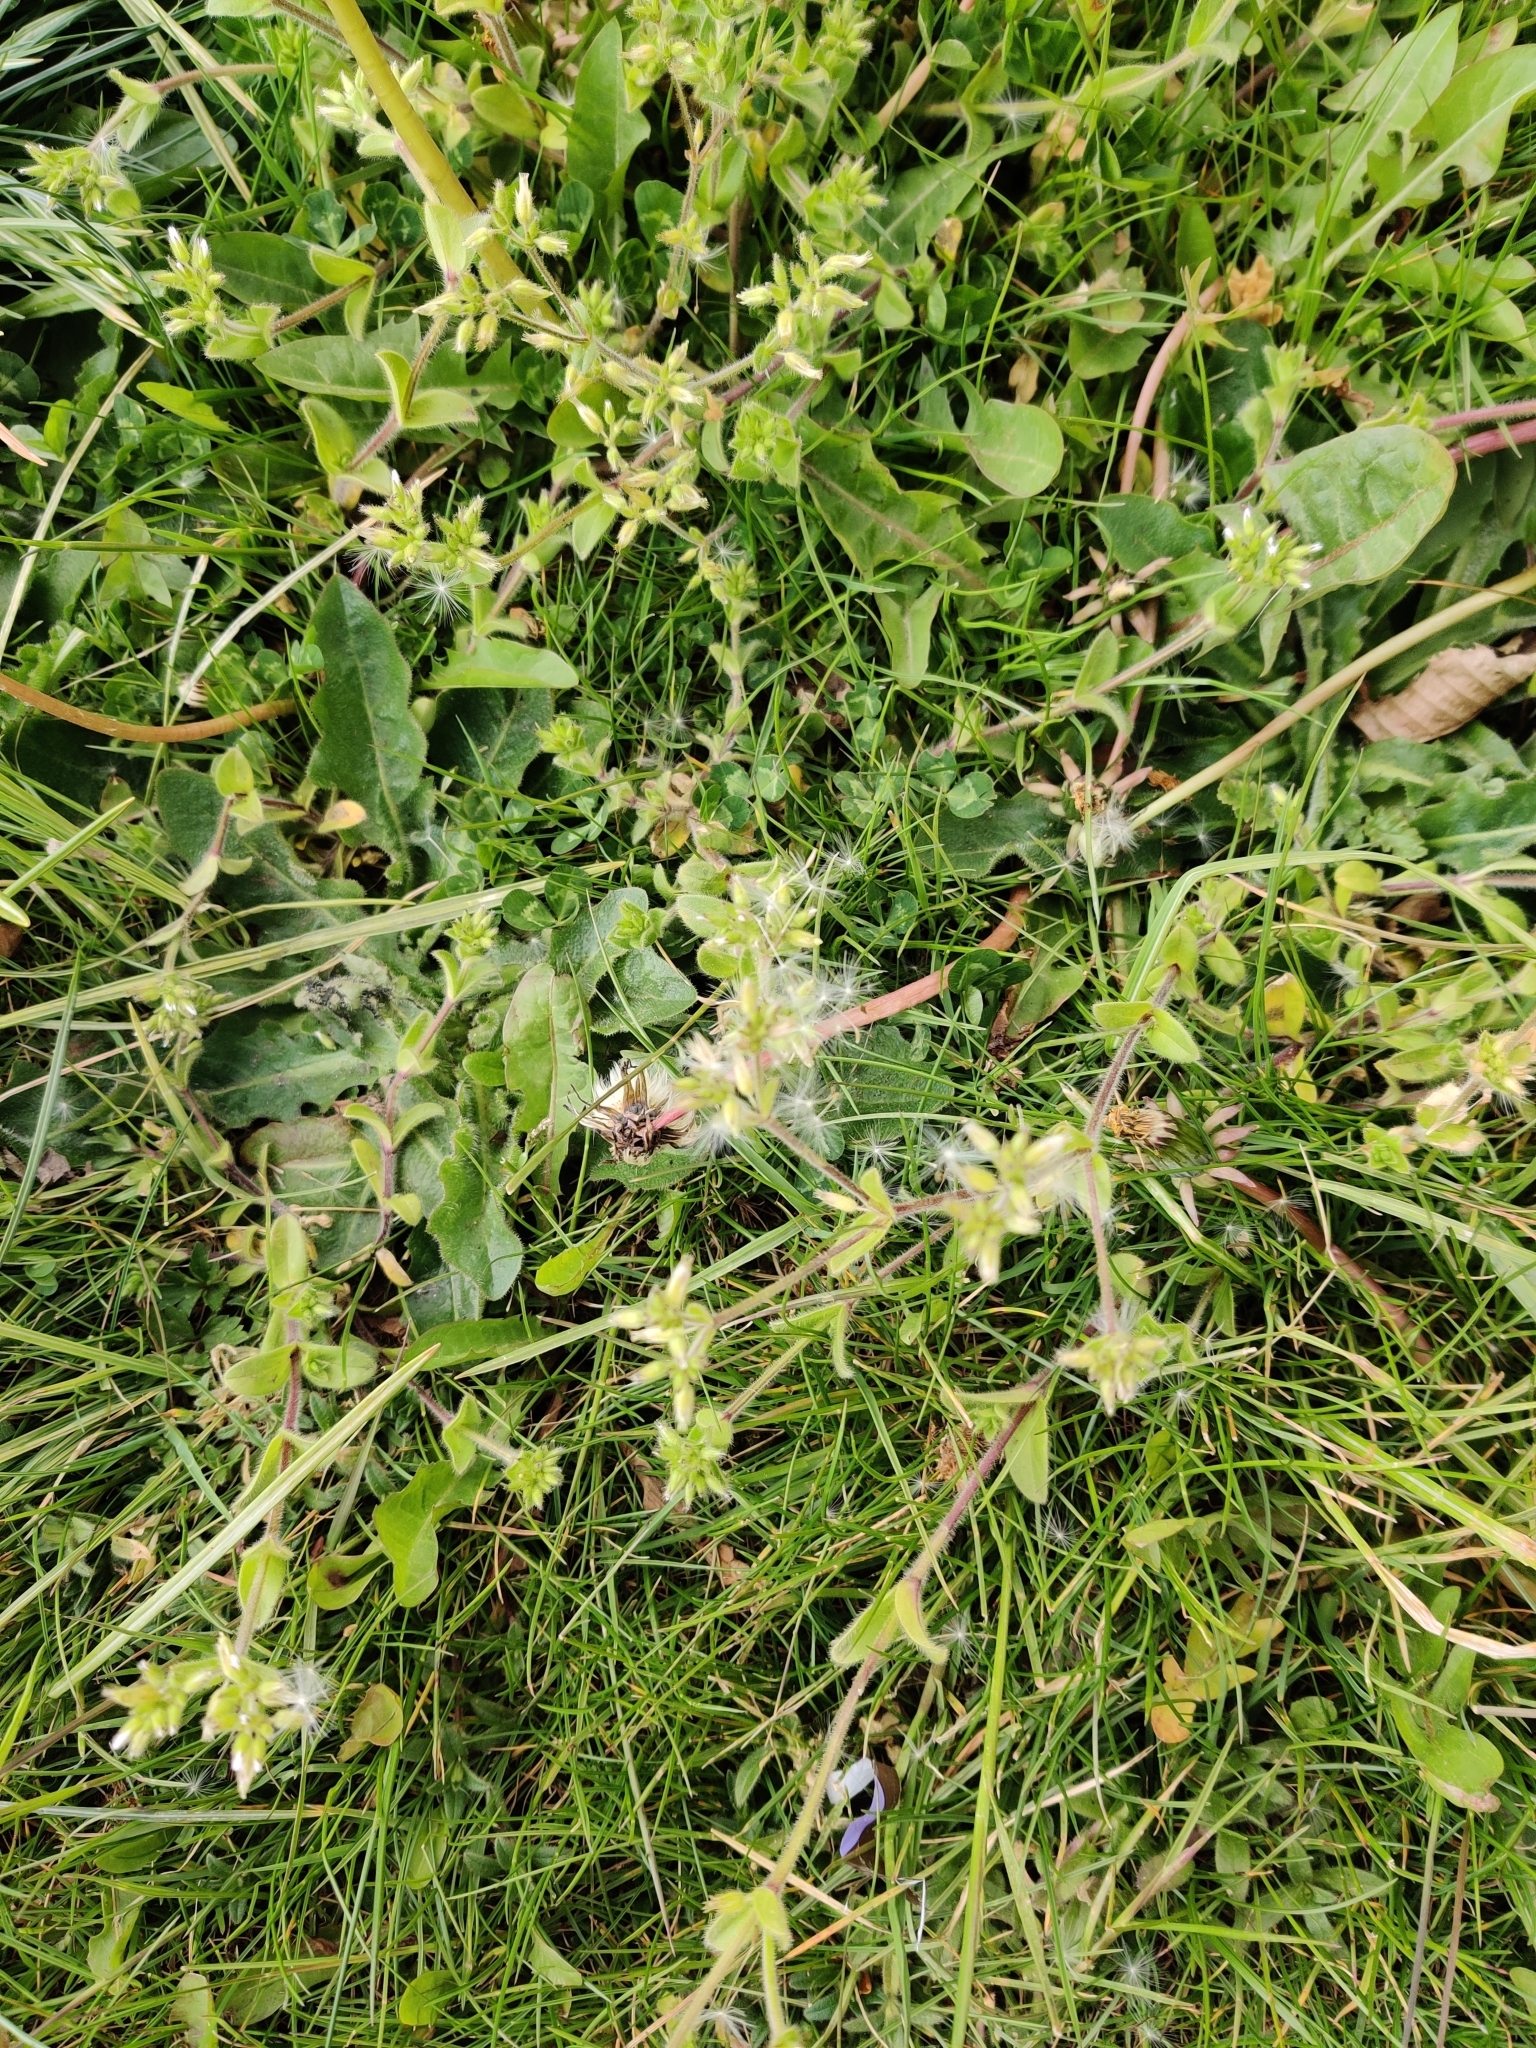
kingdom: Plantae
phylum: Tracheophyta
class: Magnoliopsida
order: Caryophyllales
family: Caryophyllaceae
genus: Cerastium
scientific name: Cerastium glomeratum
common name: Sticky chickweed
